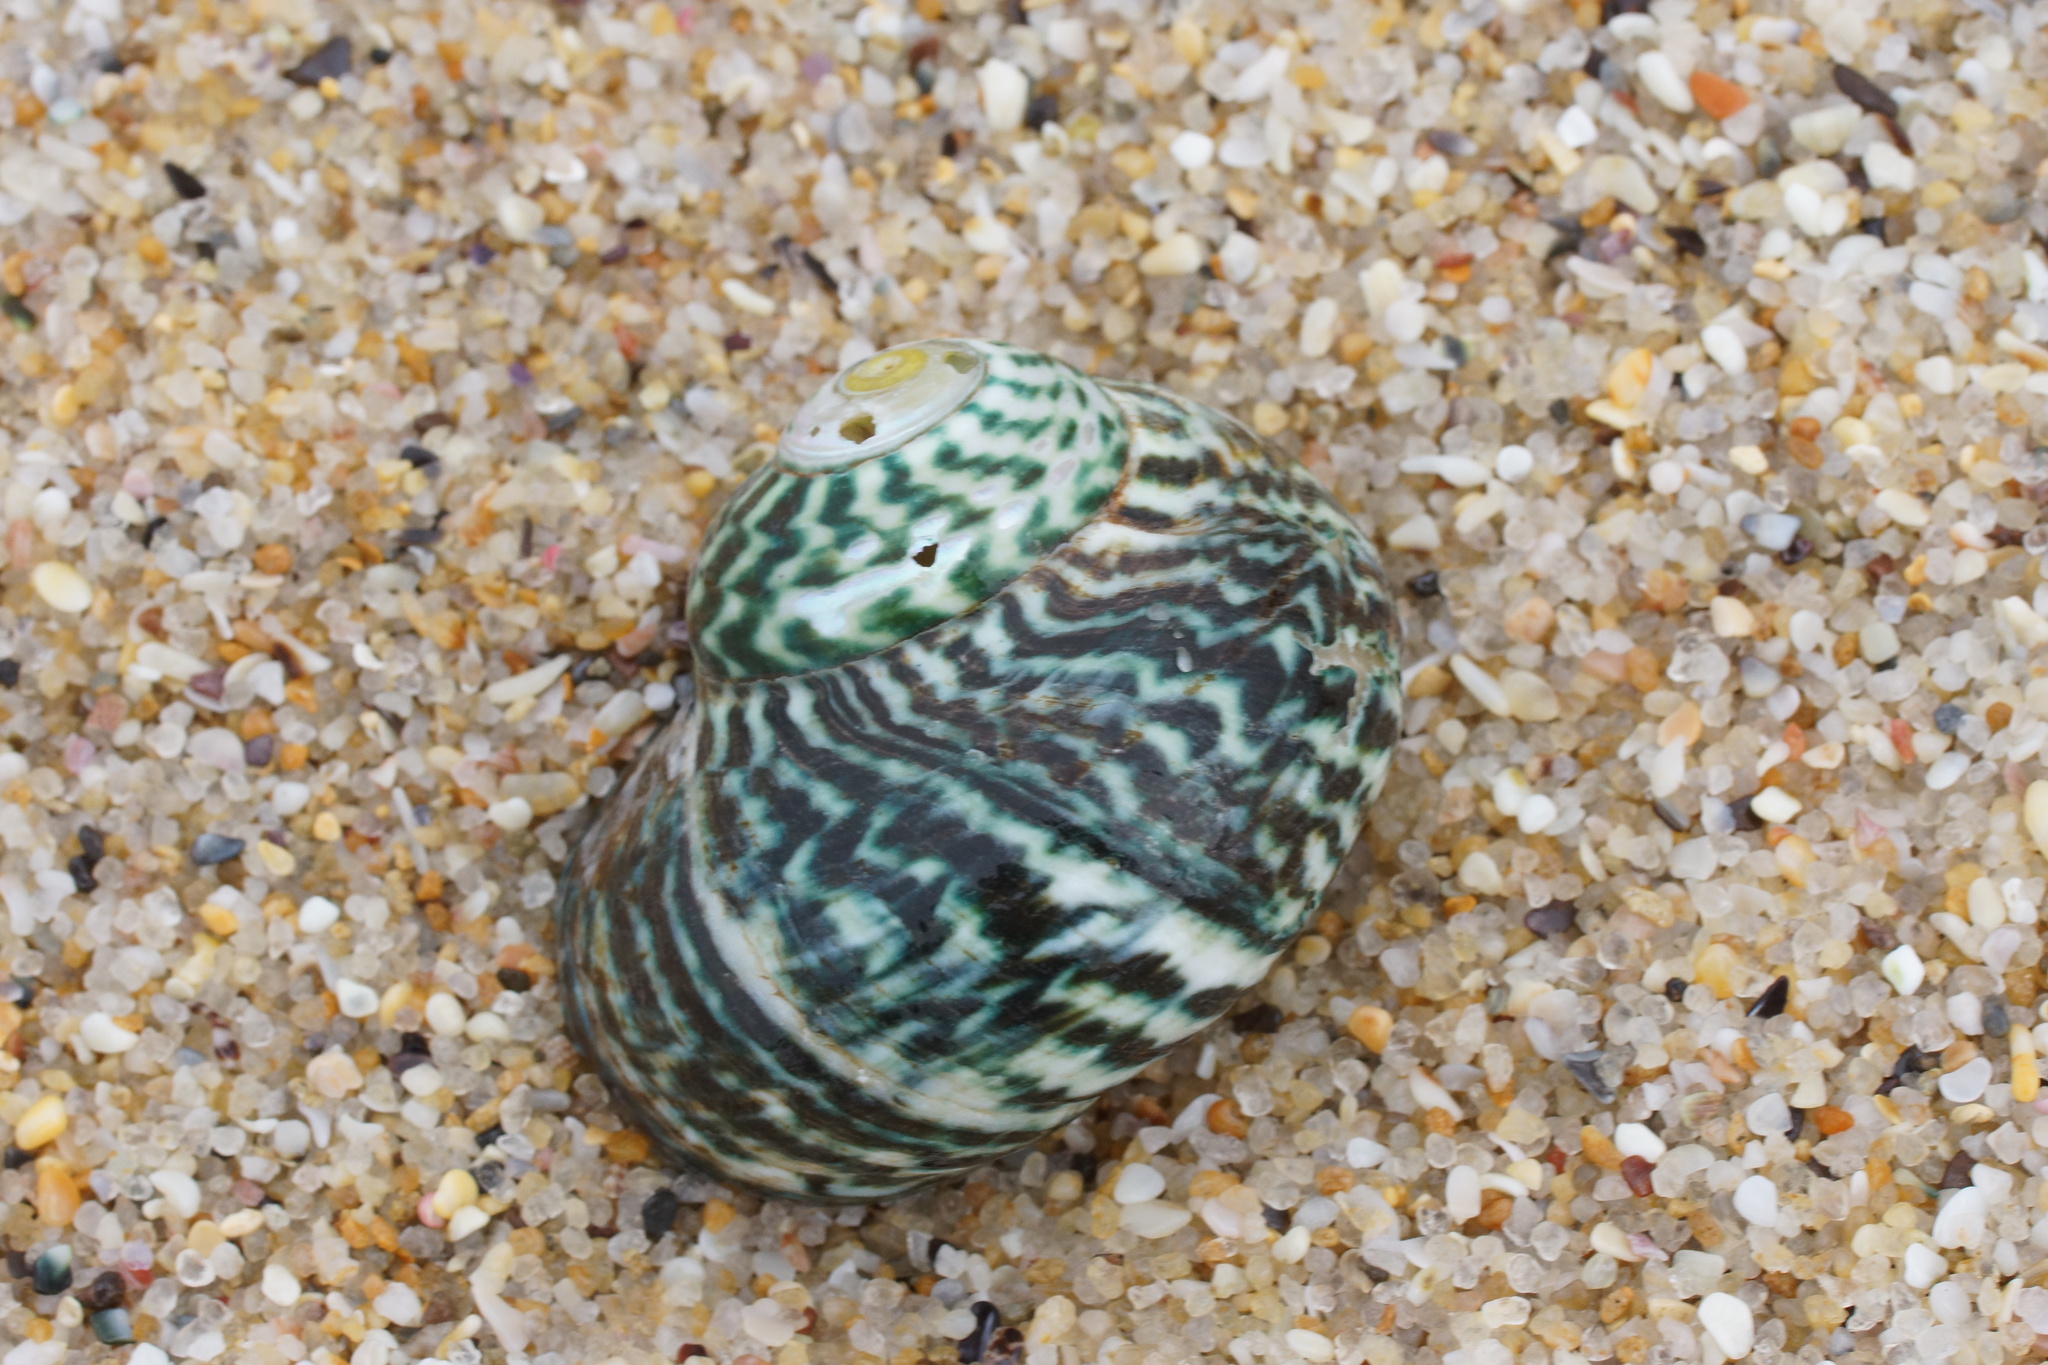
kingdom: Animalia
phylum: Mollusca
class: Gastropoda
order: Trochida
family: Turbinidae
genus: Lunella
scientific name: Lunella undulata
